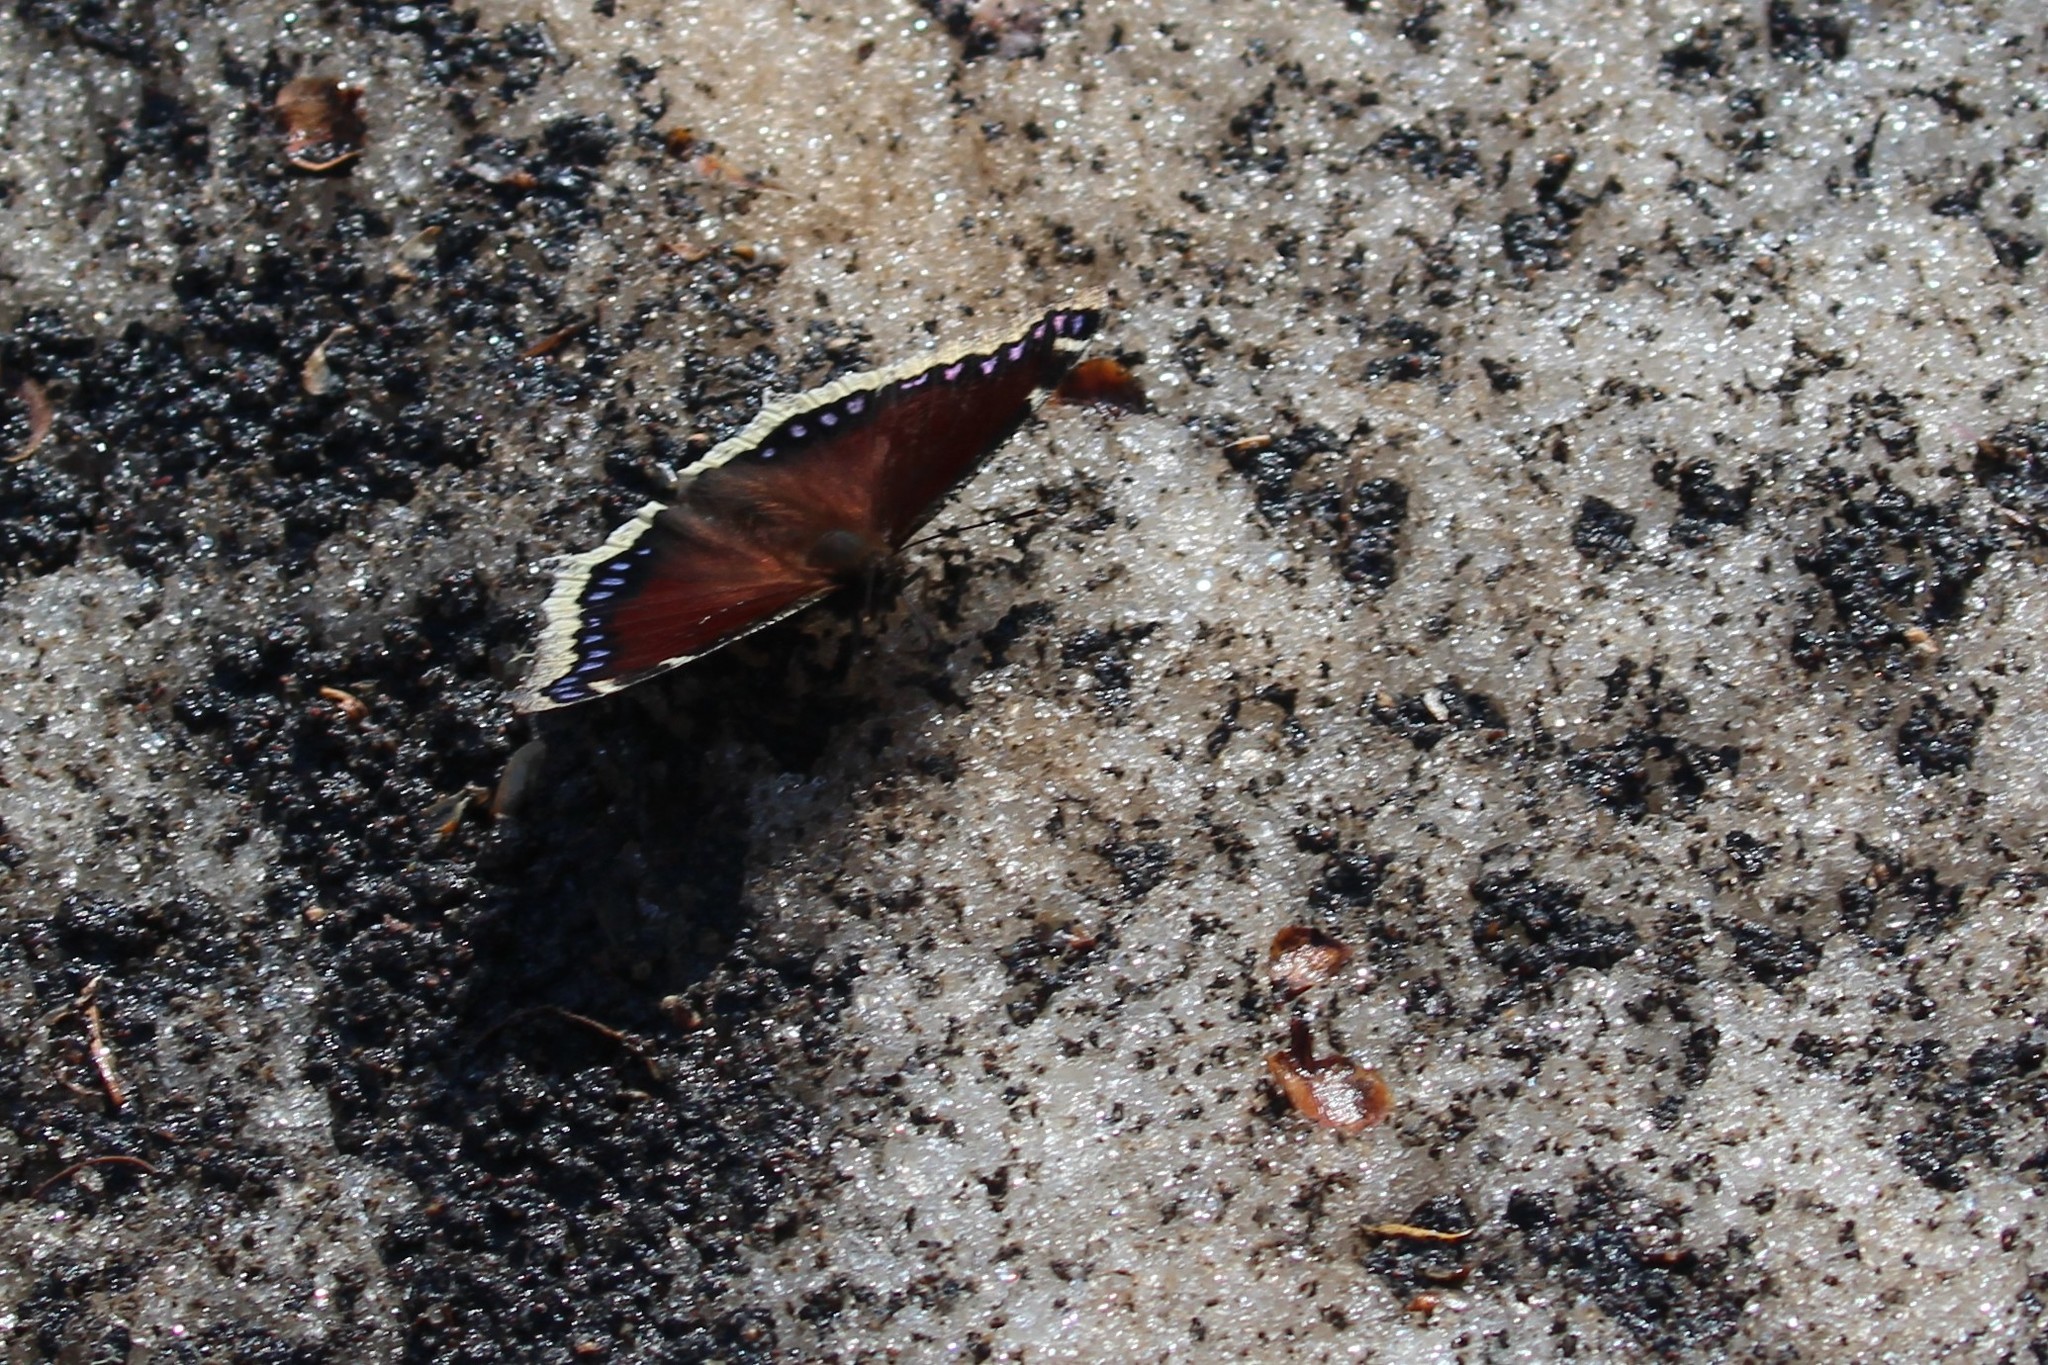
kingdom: Animalia
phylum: Arthropoda
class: Insecta
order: Lepidoptera
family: Nymphalidae
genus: Nymphalis
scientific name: Nymphalis antiopa
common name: Camberwell beauty
